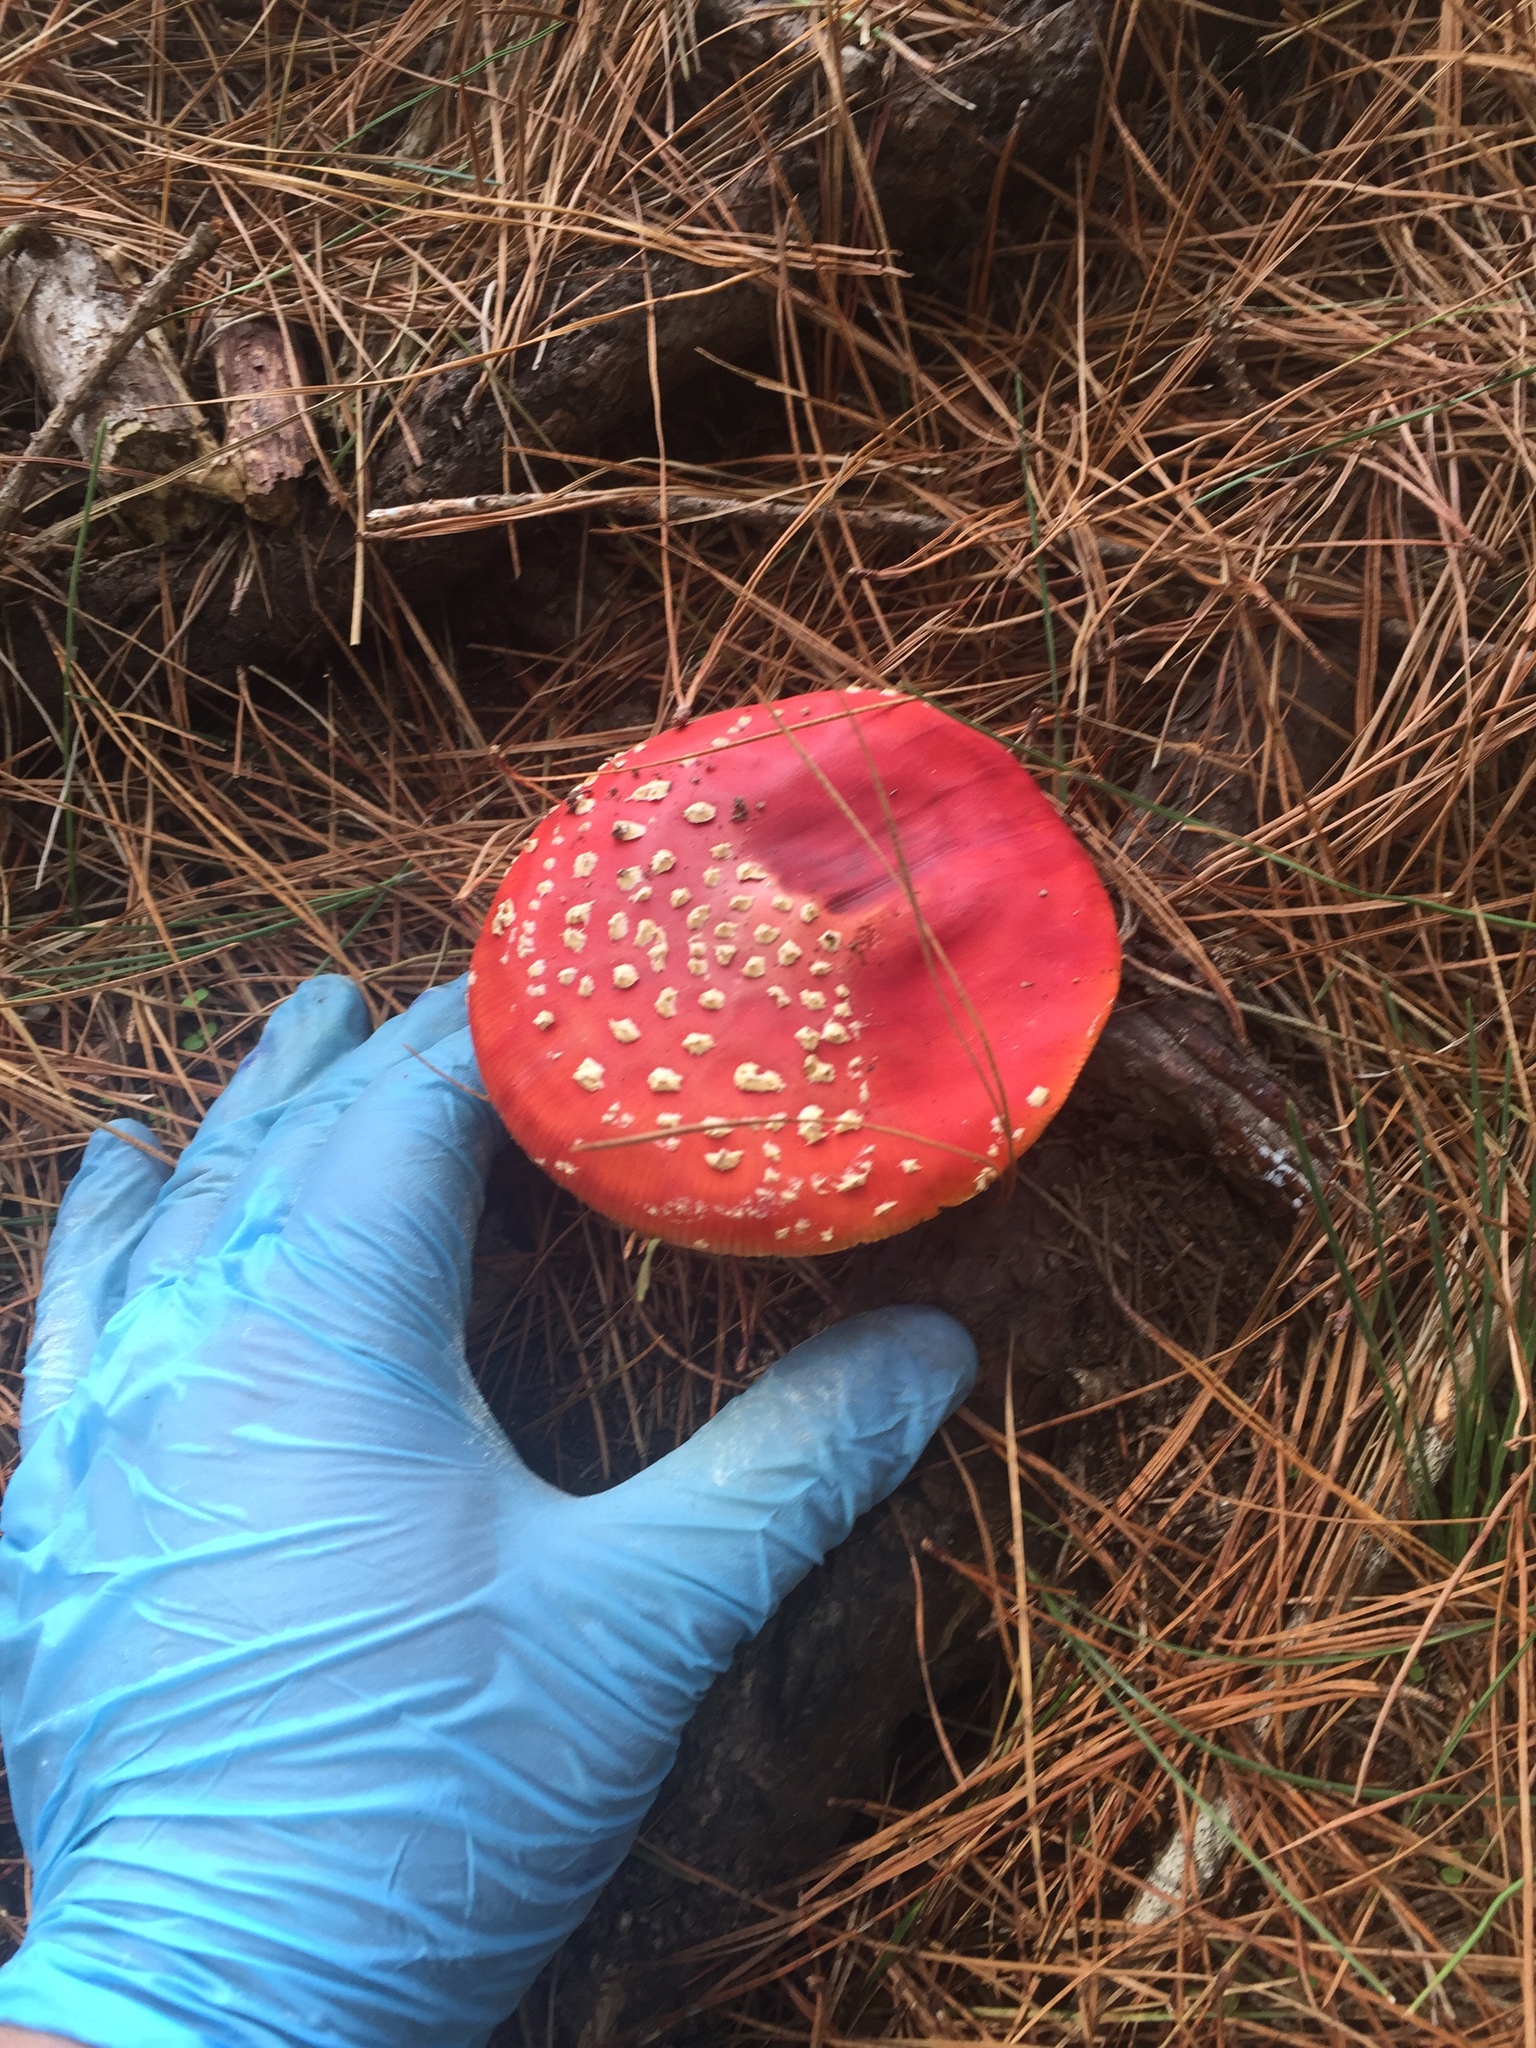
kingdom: Fungi
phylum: Basidiomycota
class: Agaricomycetes
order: Agaricales
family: Amanitaceae
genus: Amanita
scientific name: Amanita muscaria
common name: Fly agaric
